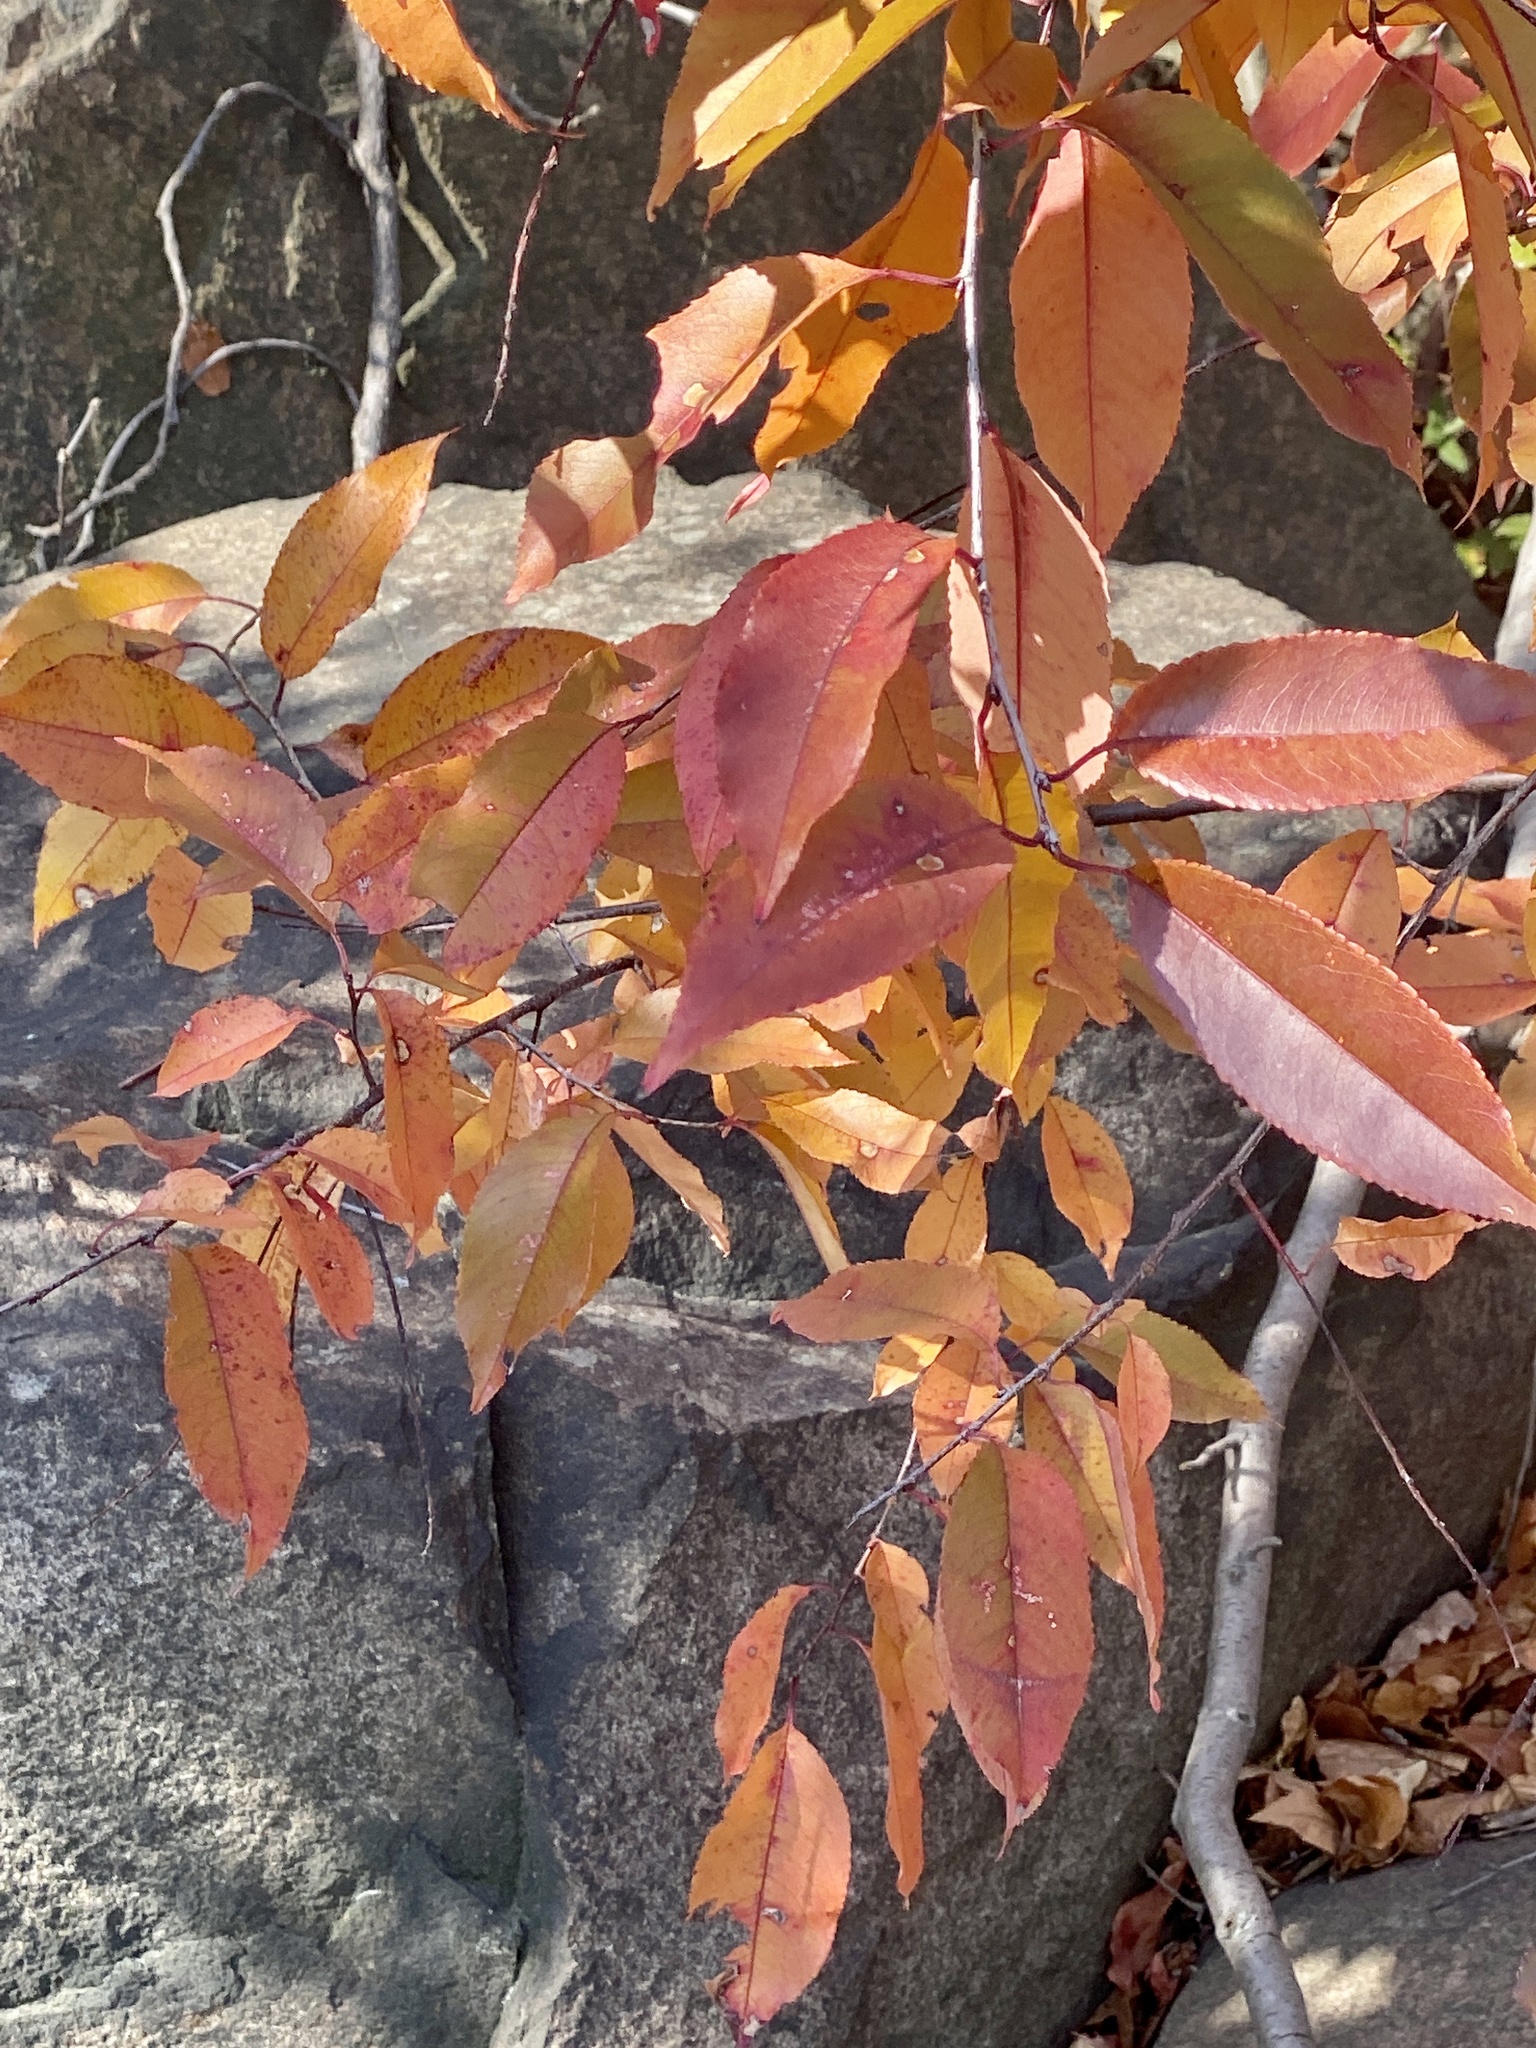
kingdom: Plantae
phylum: Tracheophyta
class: Magnoliopsida
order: Rosales
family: Rosaceae
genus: Prunus
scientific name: Prunus serotina
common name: Black cherry
